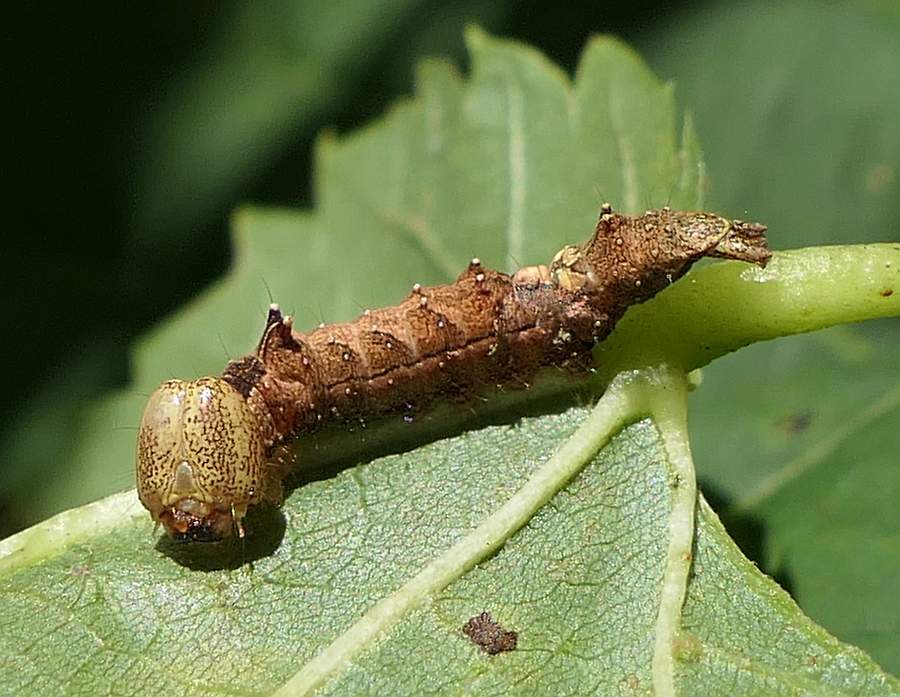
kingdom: Animalia
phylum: Arthropoda
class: Insecta
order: Lepidoptera
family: Notodontidae
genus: Schizura
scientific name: Schizura
